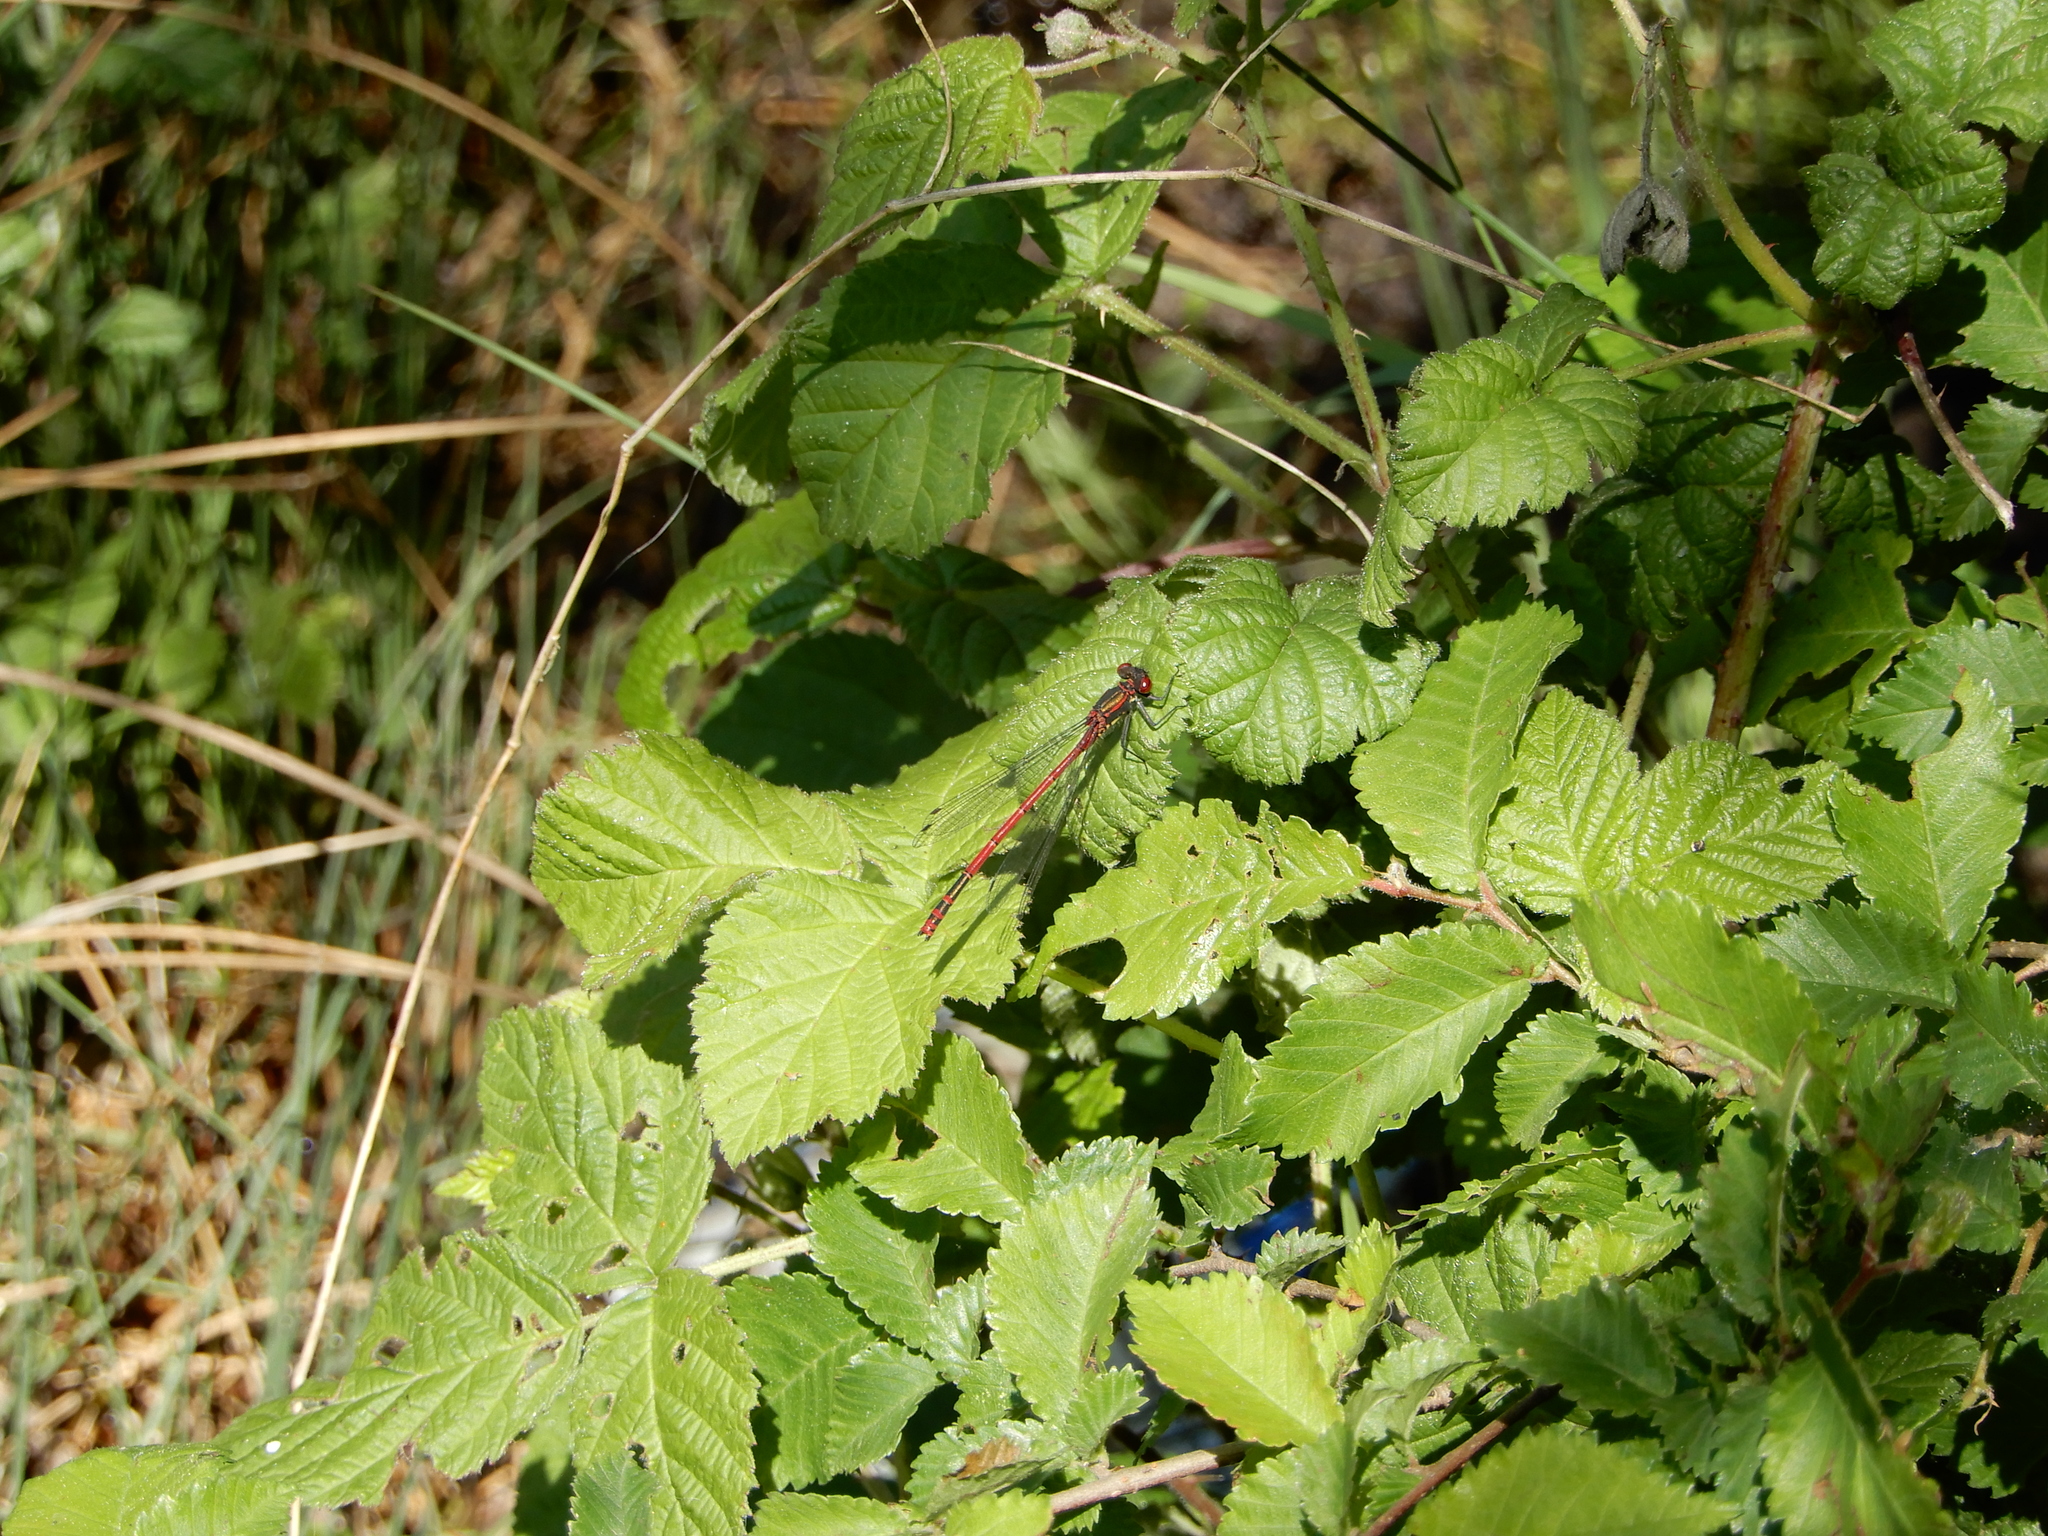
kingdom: Animalia
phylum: Arthropoda
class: Insecta
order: Odonata
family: Coenagrionidae
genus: Pyrrhosoma
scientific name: Pyrrhosoma nymphula
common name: Large red damsel
